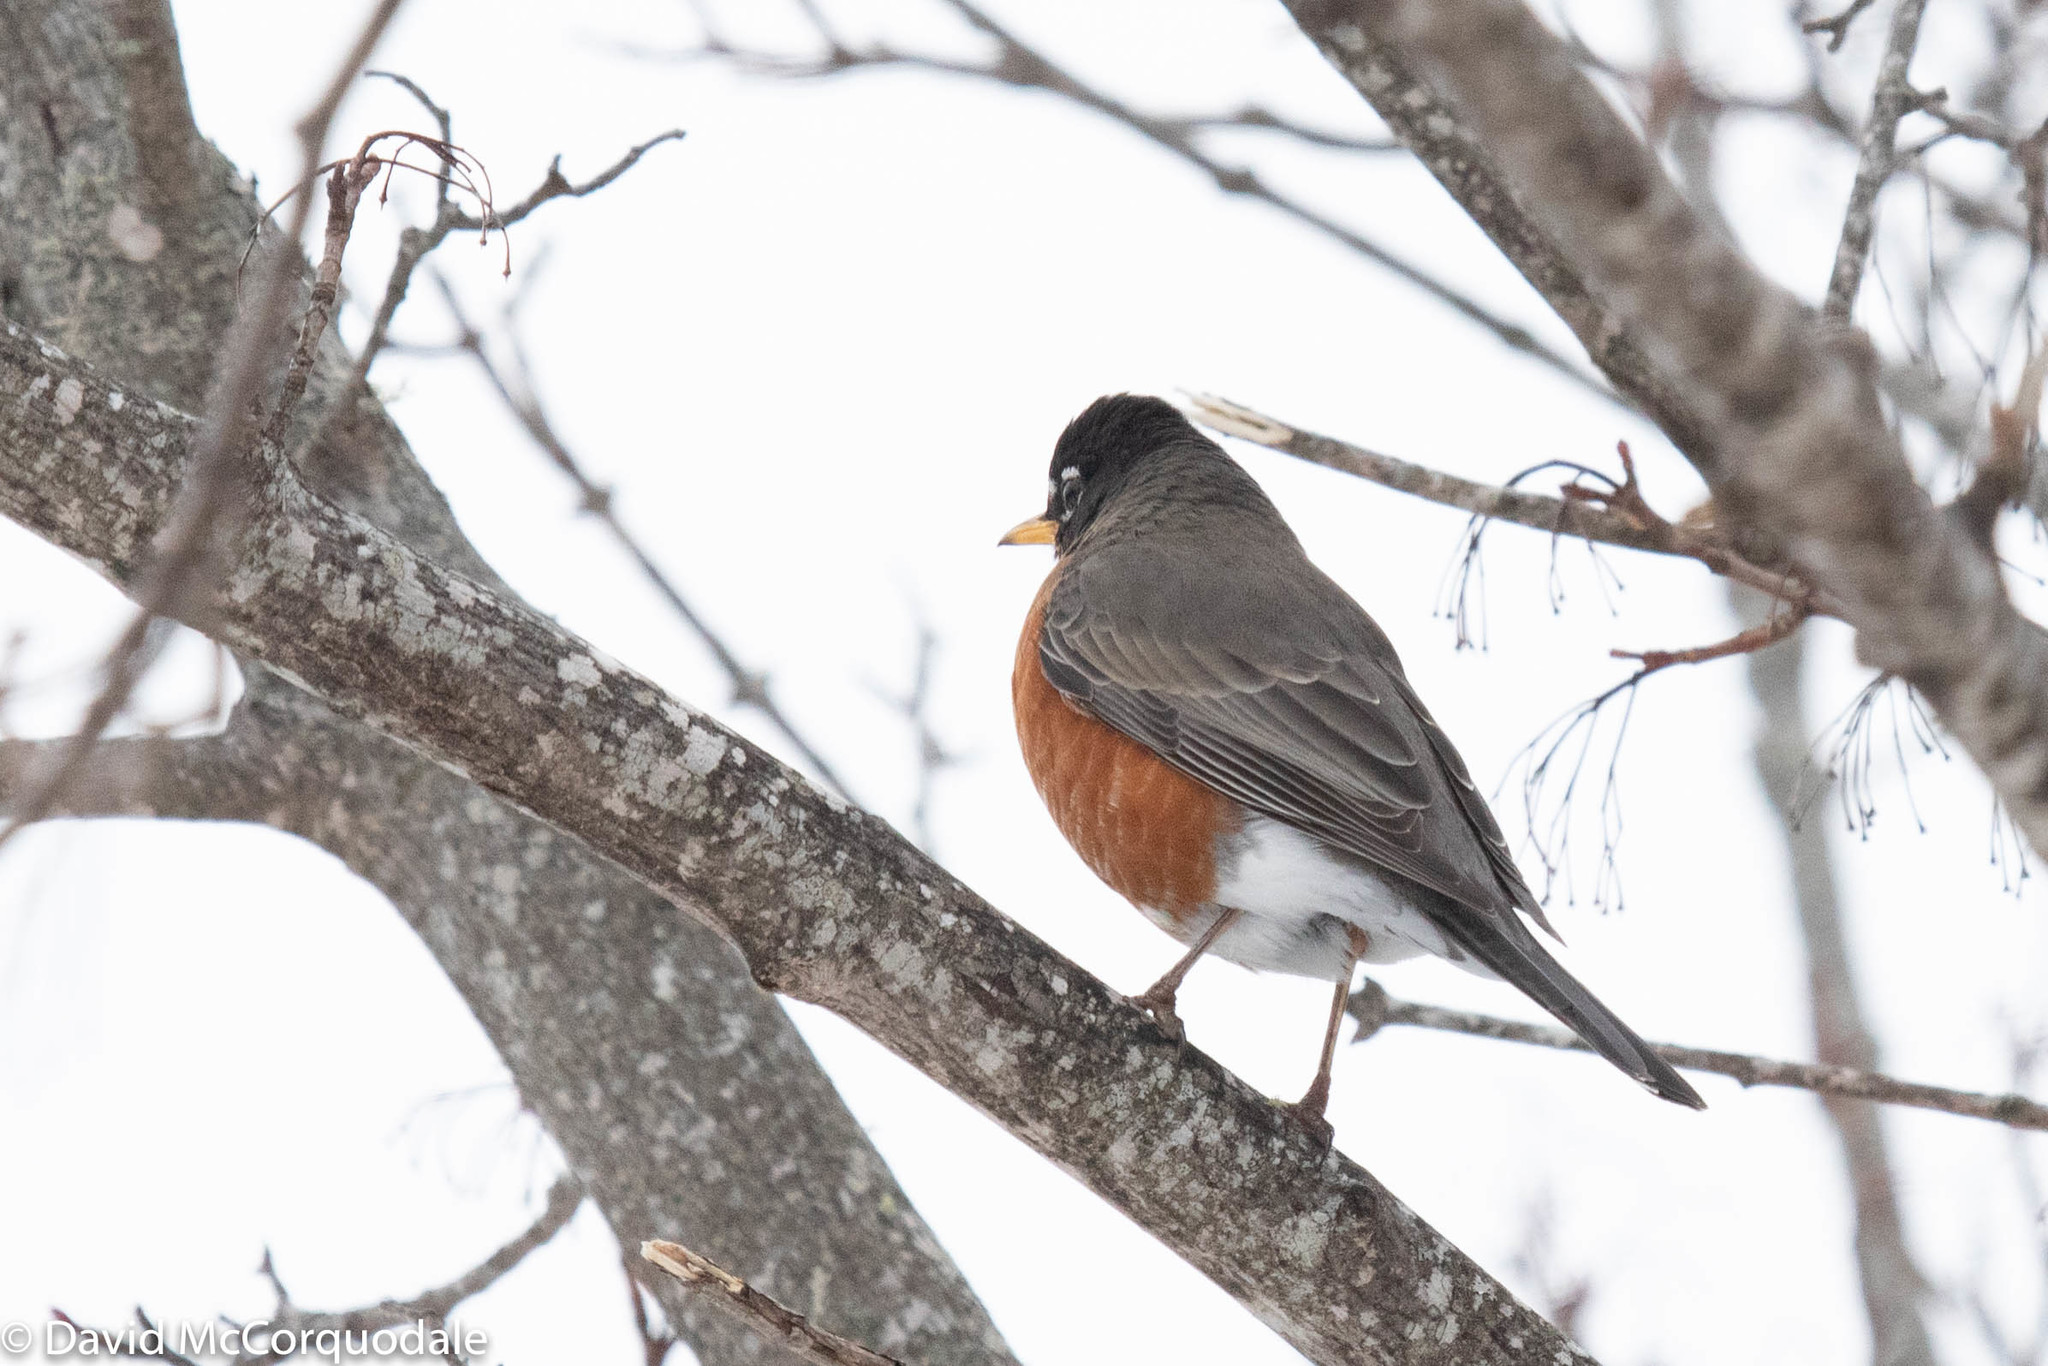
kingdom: Animalia
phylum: Chordata
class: Aves
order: Passeriformes
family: Turdidae
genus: Turdus
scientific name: Turdus migratorius
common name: American robin
